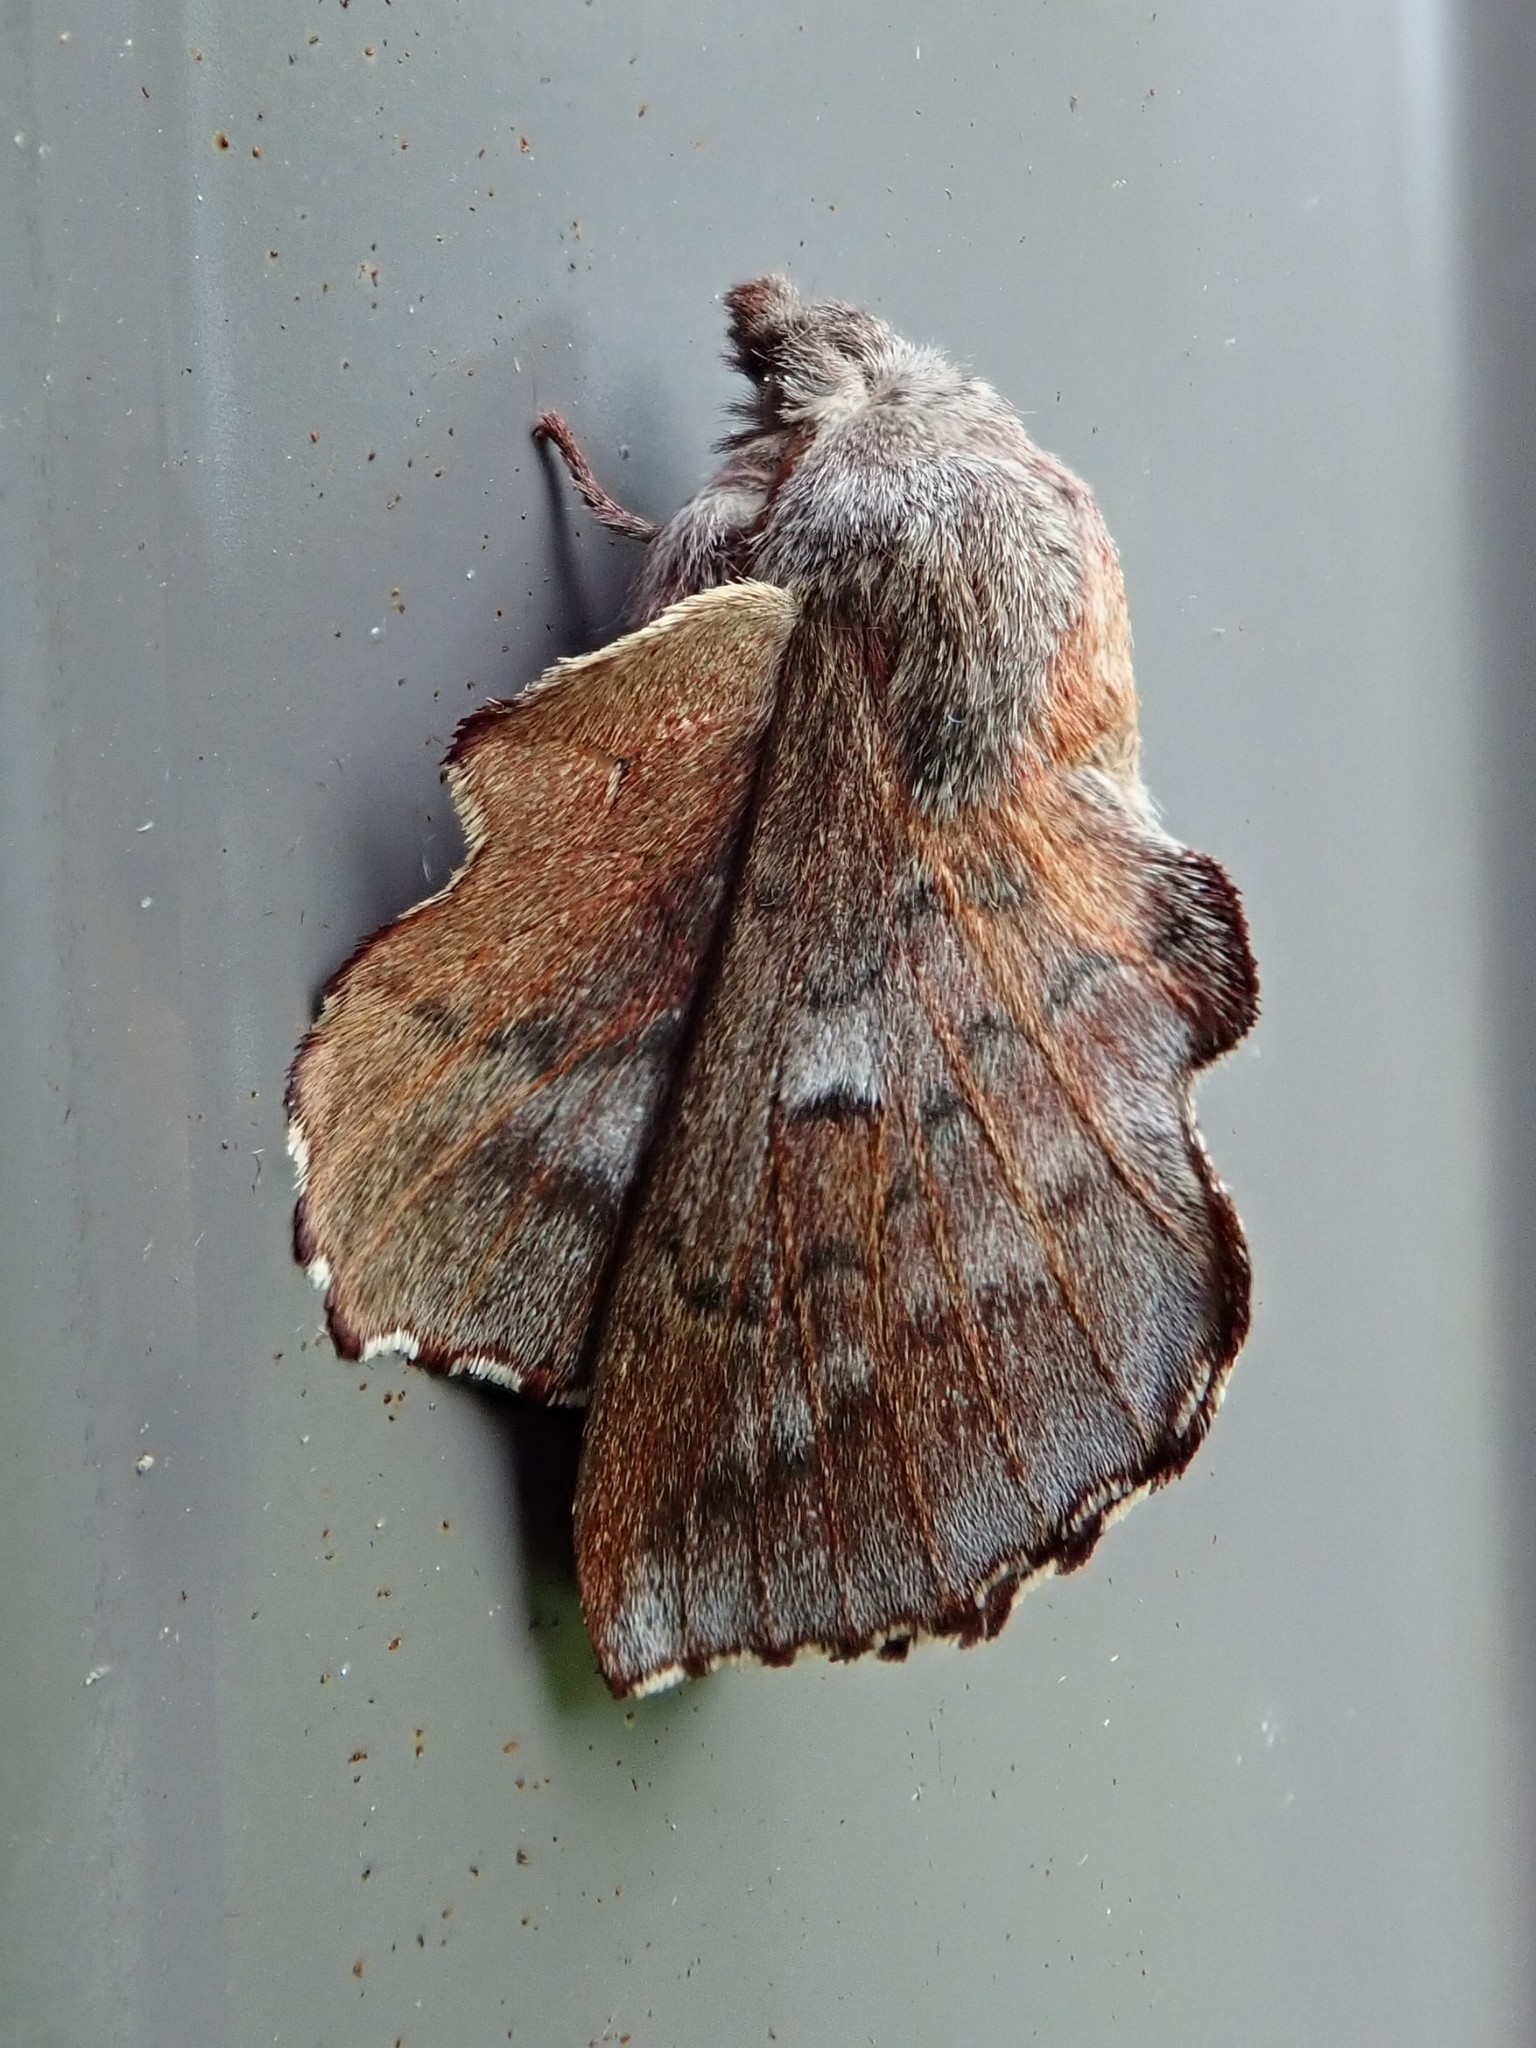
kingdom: Animalia
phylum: Arthropoda
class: Insecta
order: Lepidoptera
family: Lasiocampidae
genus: Phyllodesma
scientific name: Phyllodesma americana
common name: American lappet moth
